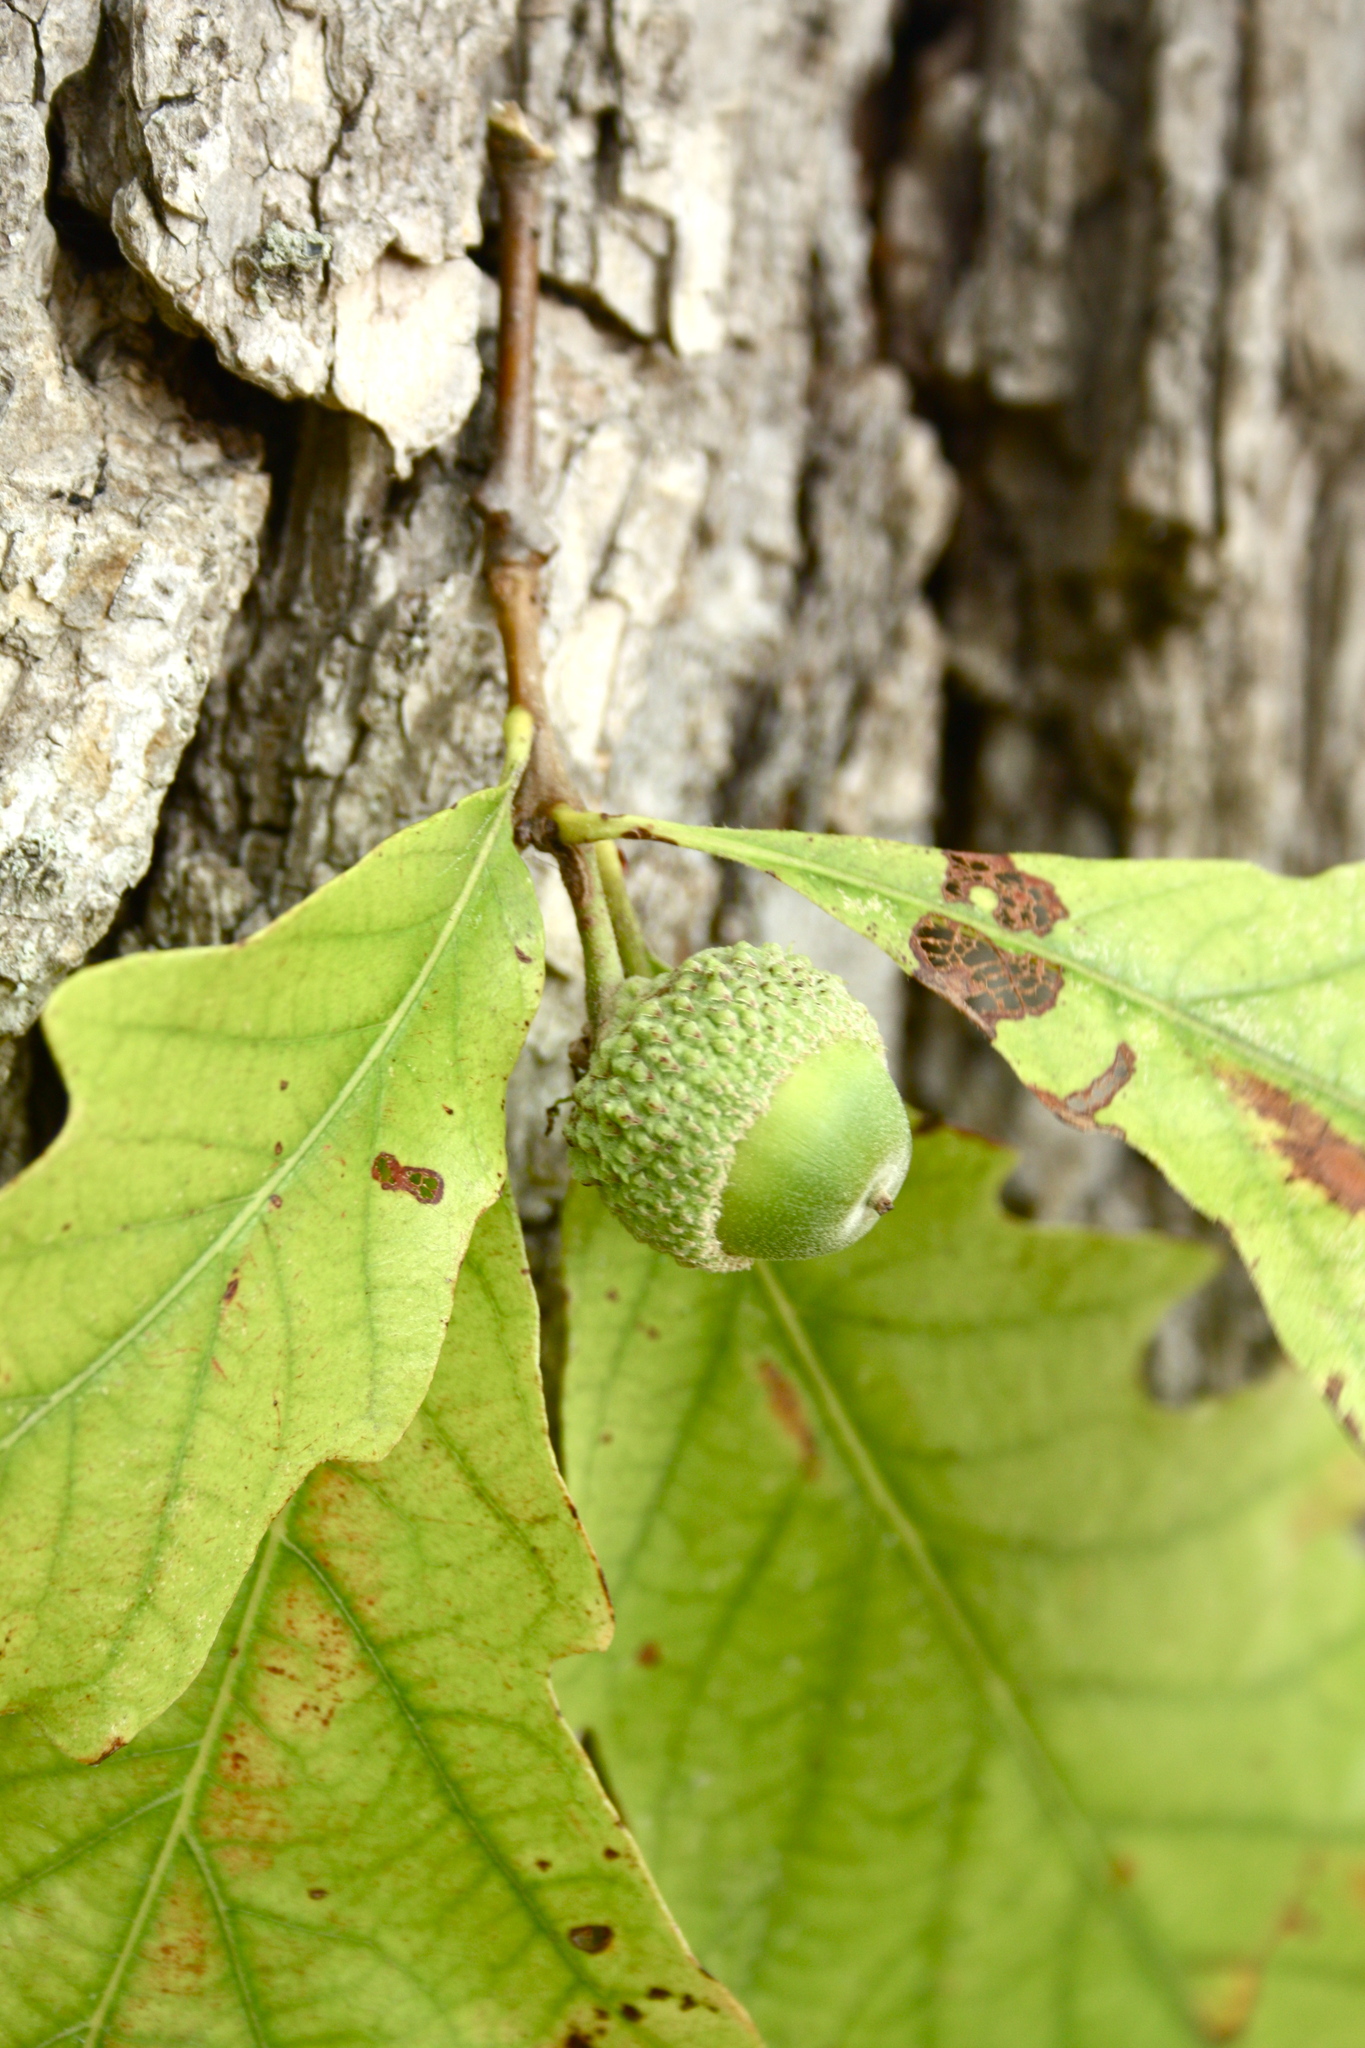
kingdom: Plantae
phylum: Tracheophyta
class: Magnoliopsida
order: Fagales
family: Fagaceae
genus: Quercus
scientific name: Quercus bicolor
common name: Swamp white oak
